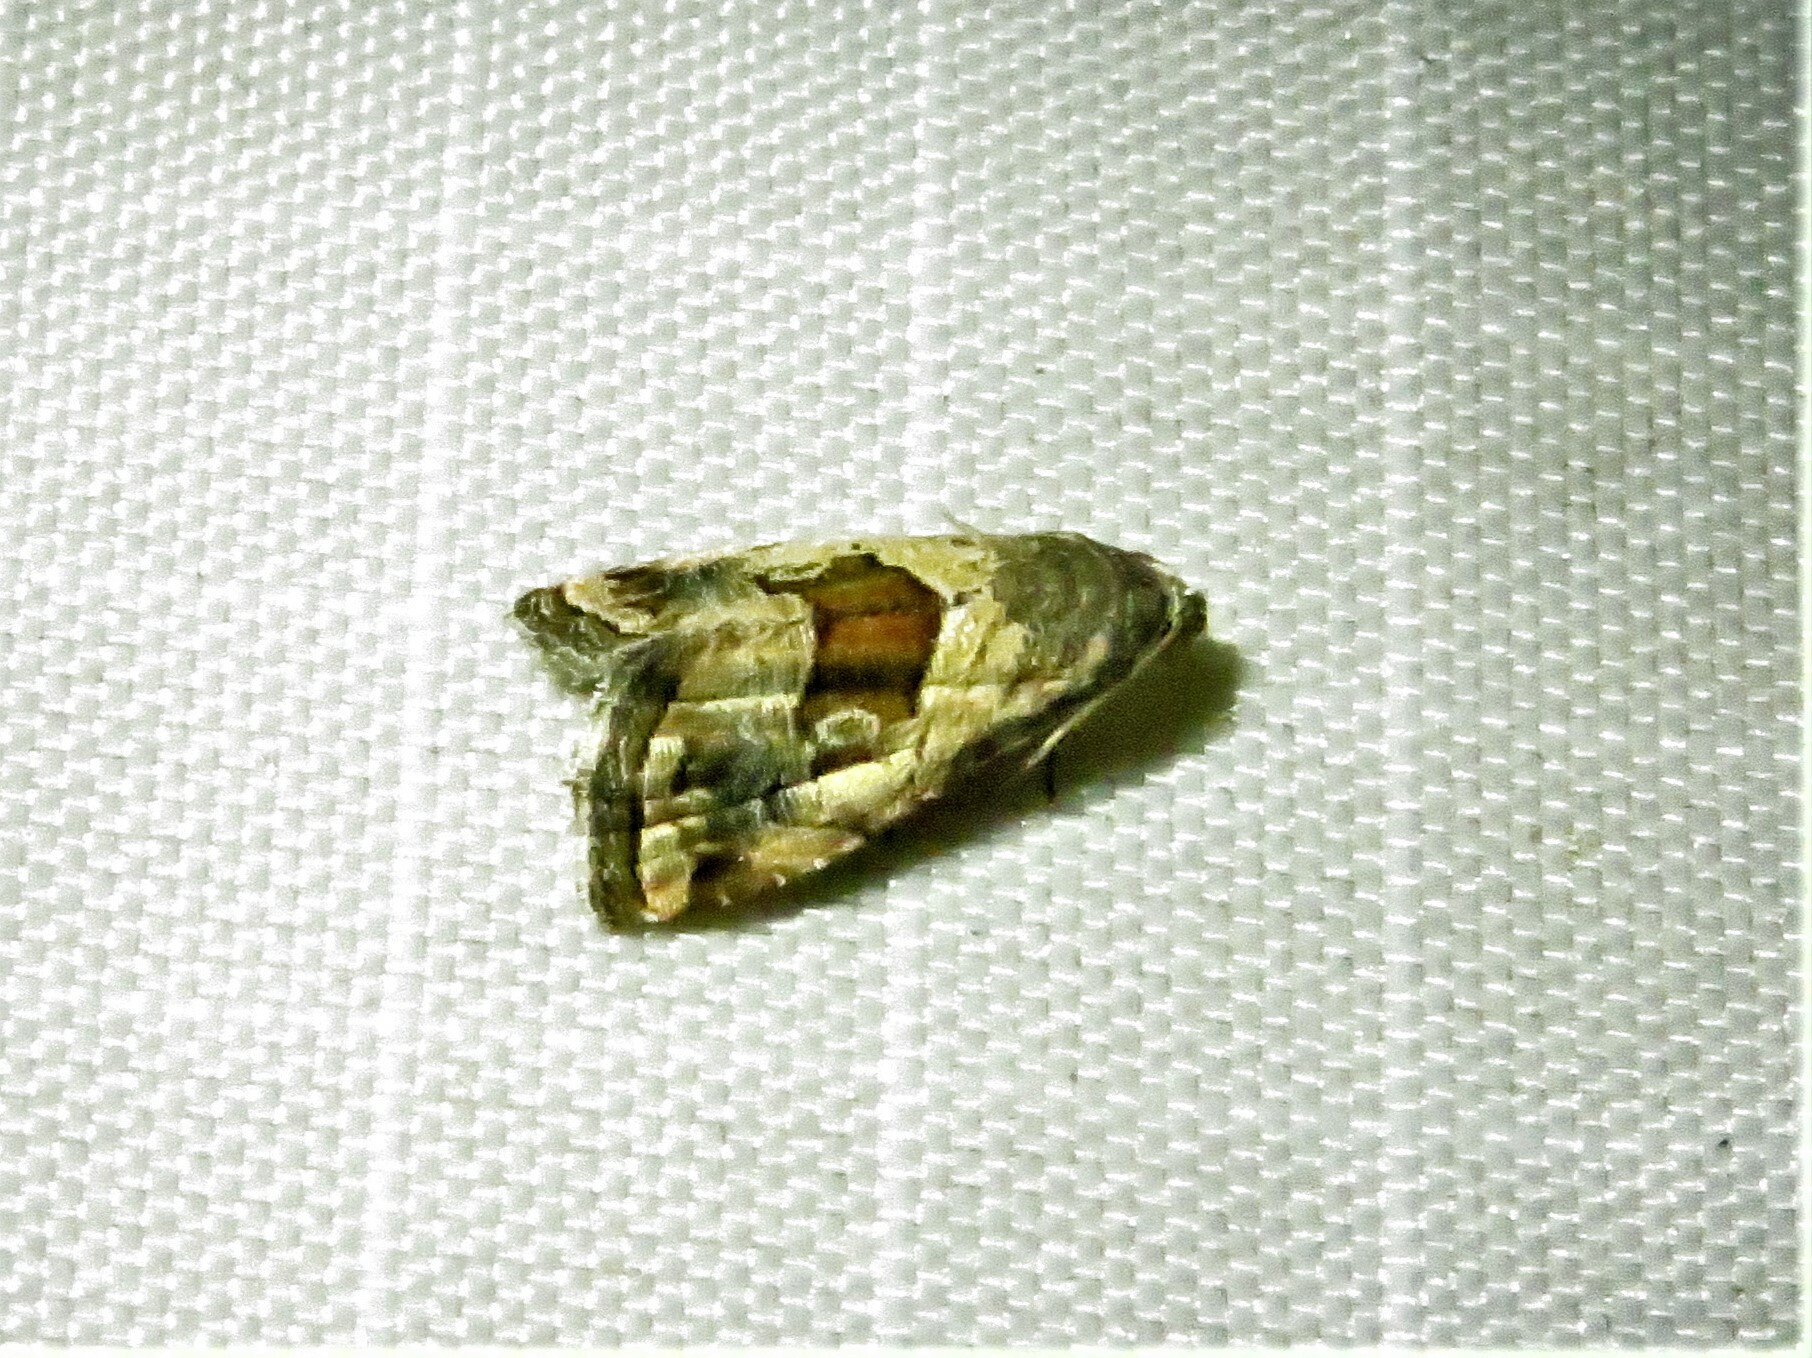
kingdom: Animalia
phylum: Arthropoda
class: Insecta
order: Lepidoptera
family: Noctuidae
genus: Tripudia
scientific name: Tripudia quadrifera
